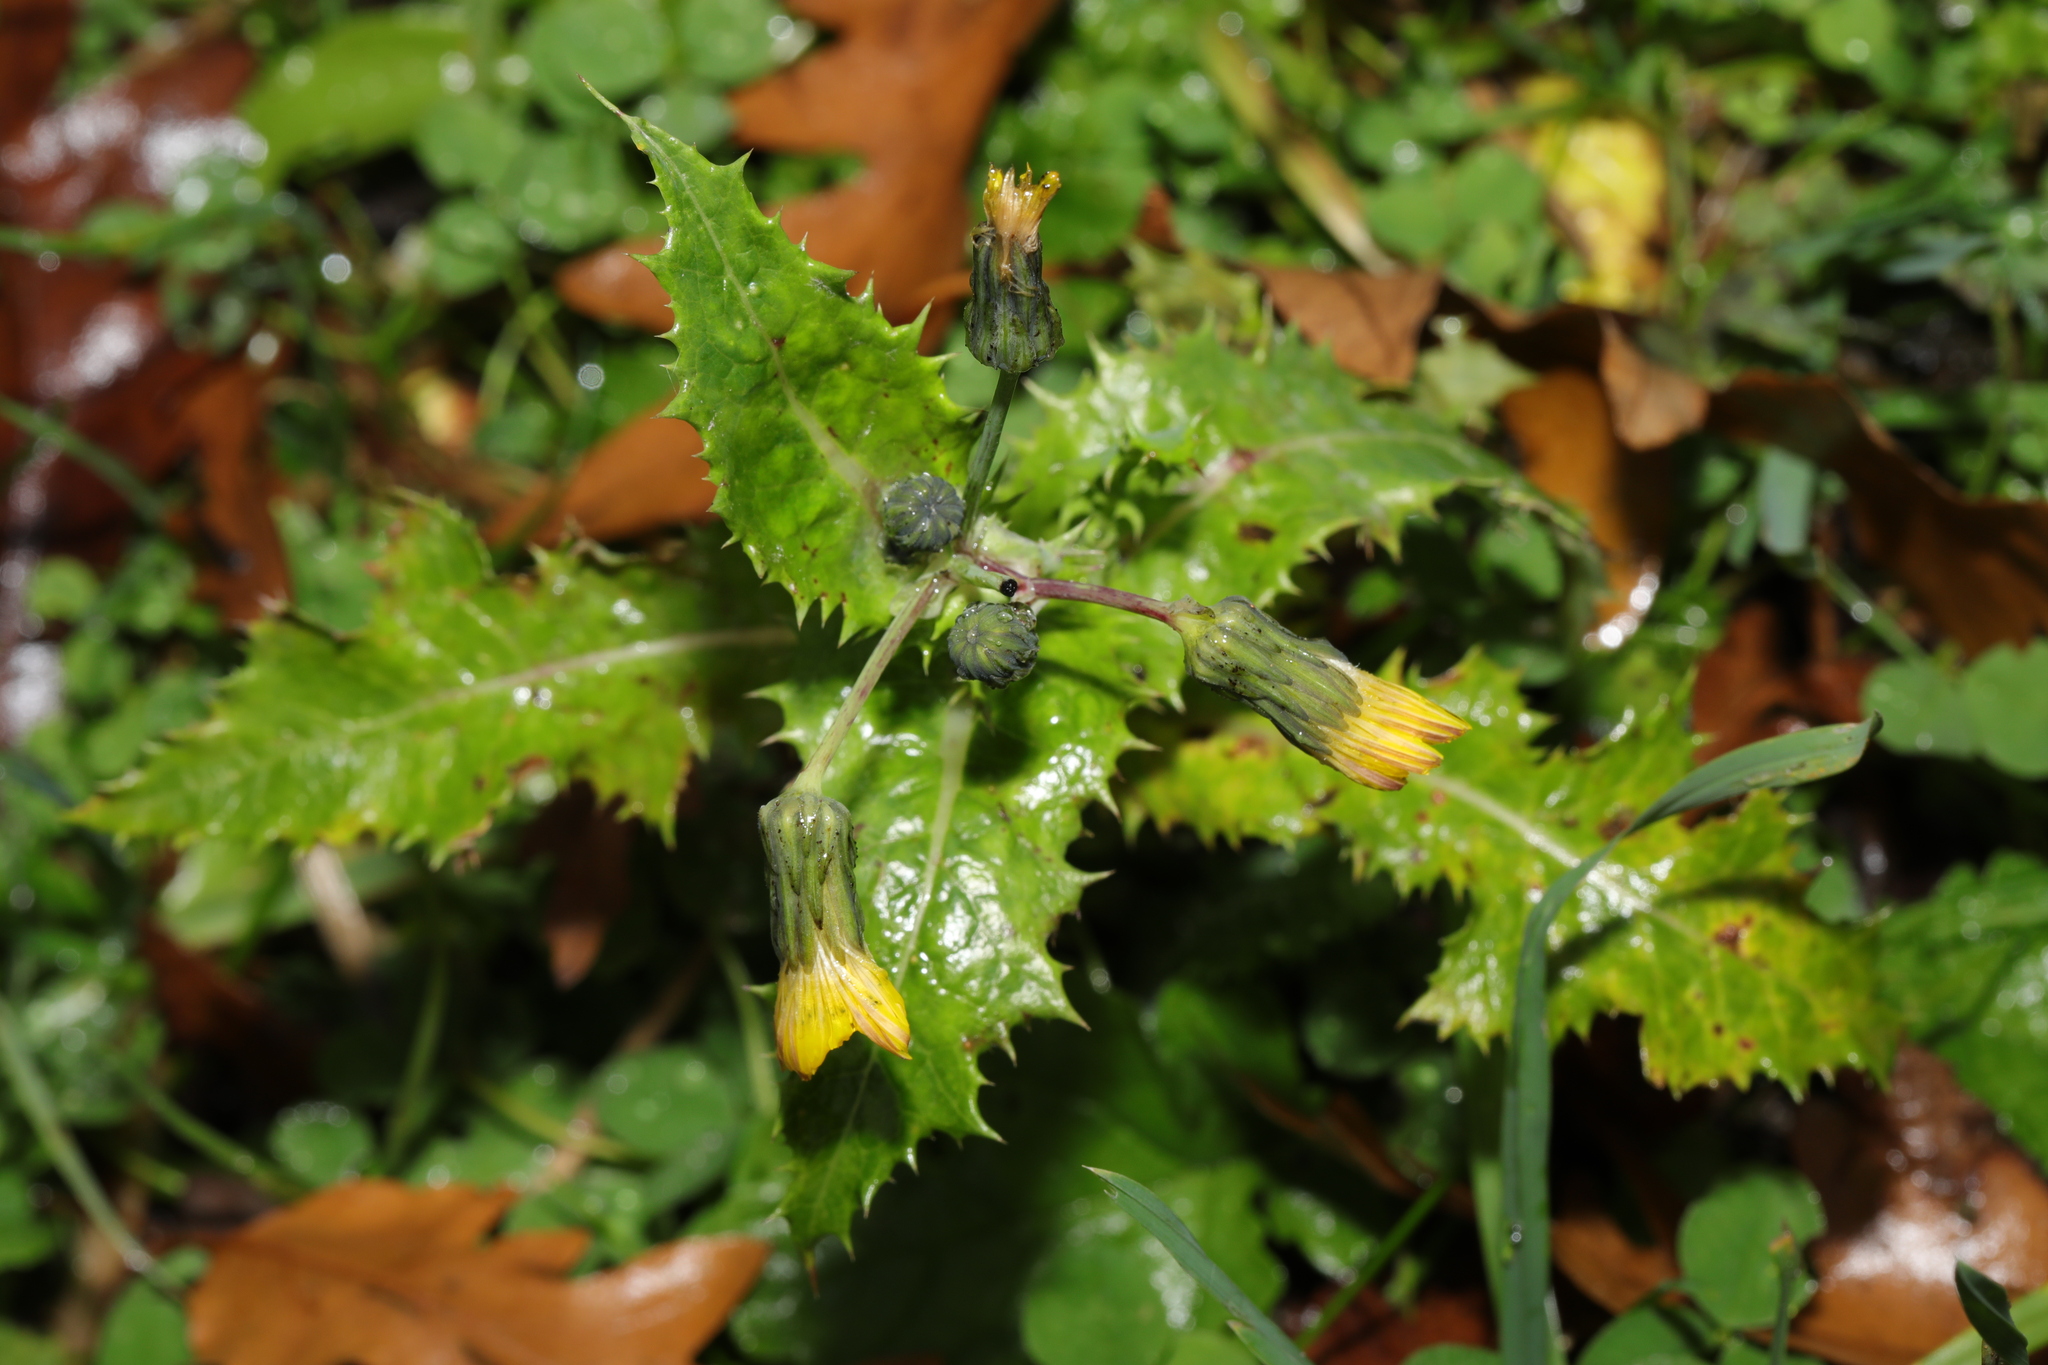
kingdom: Plantae
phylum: Tracheophyta
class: Magnoliopsida
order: Asterales
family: Asteraceae
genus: Sonchus
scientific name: Sonchus asper
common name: Prickly sow-thistle
